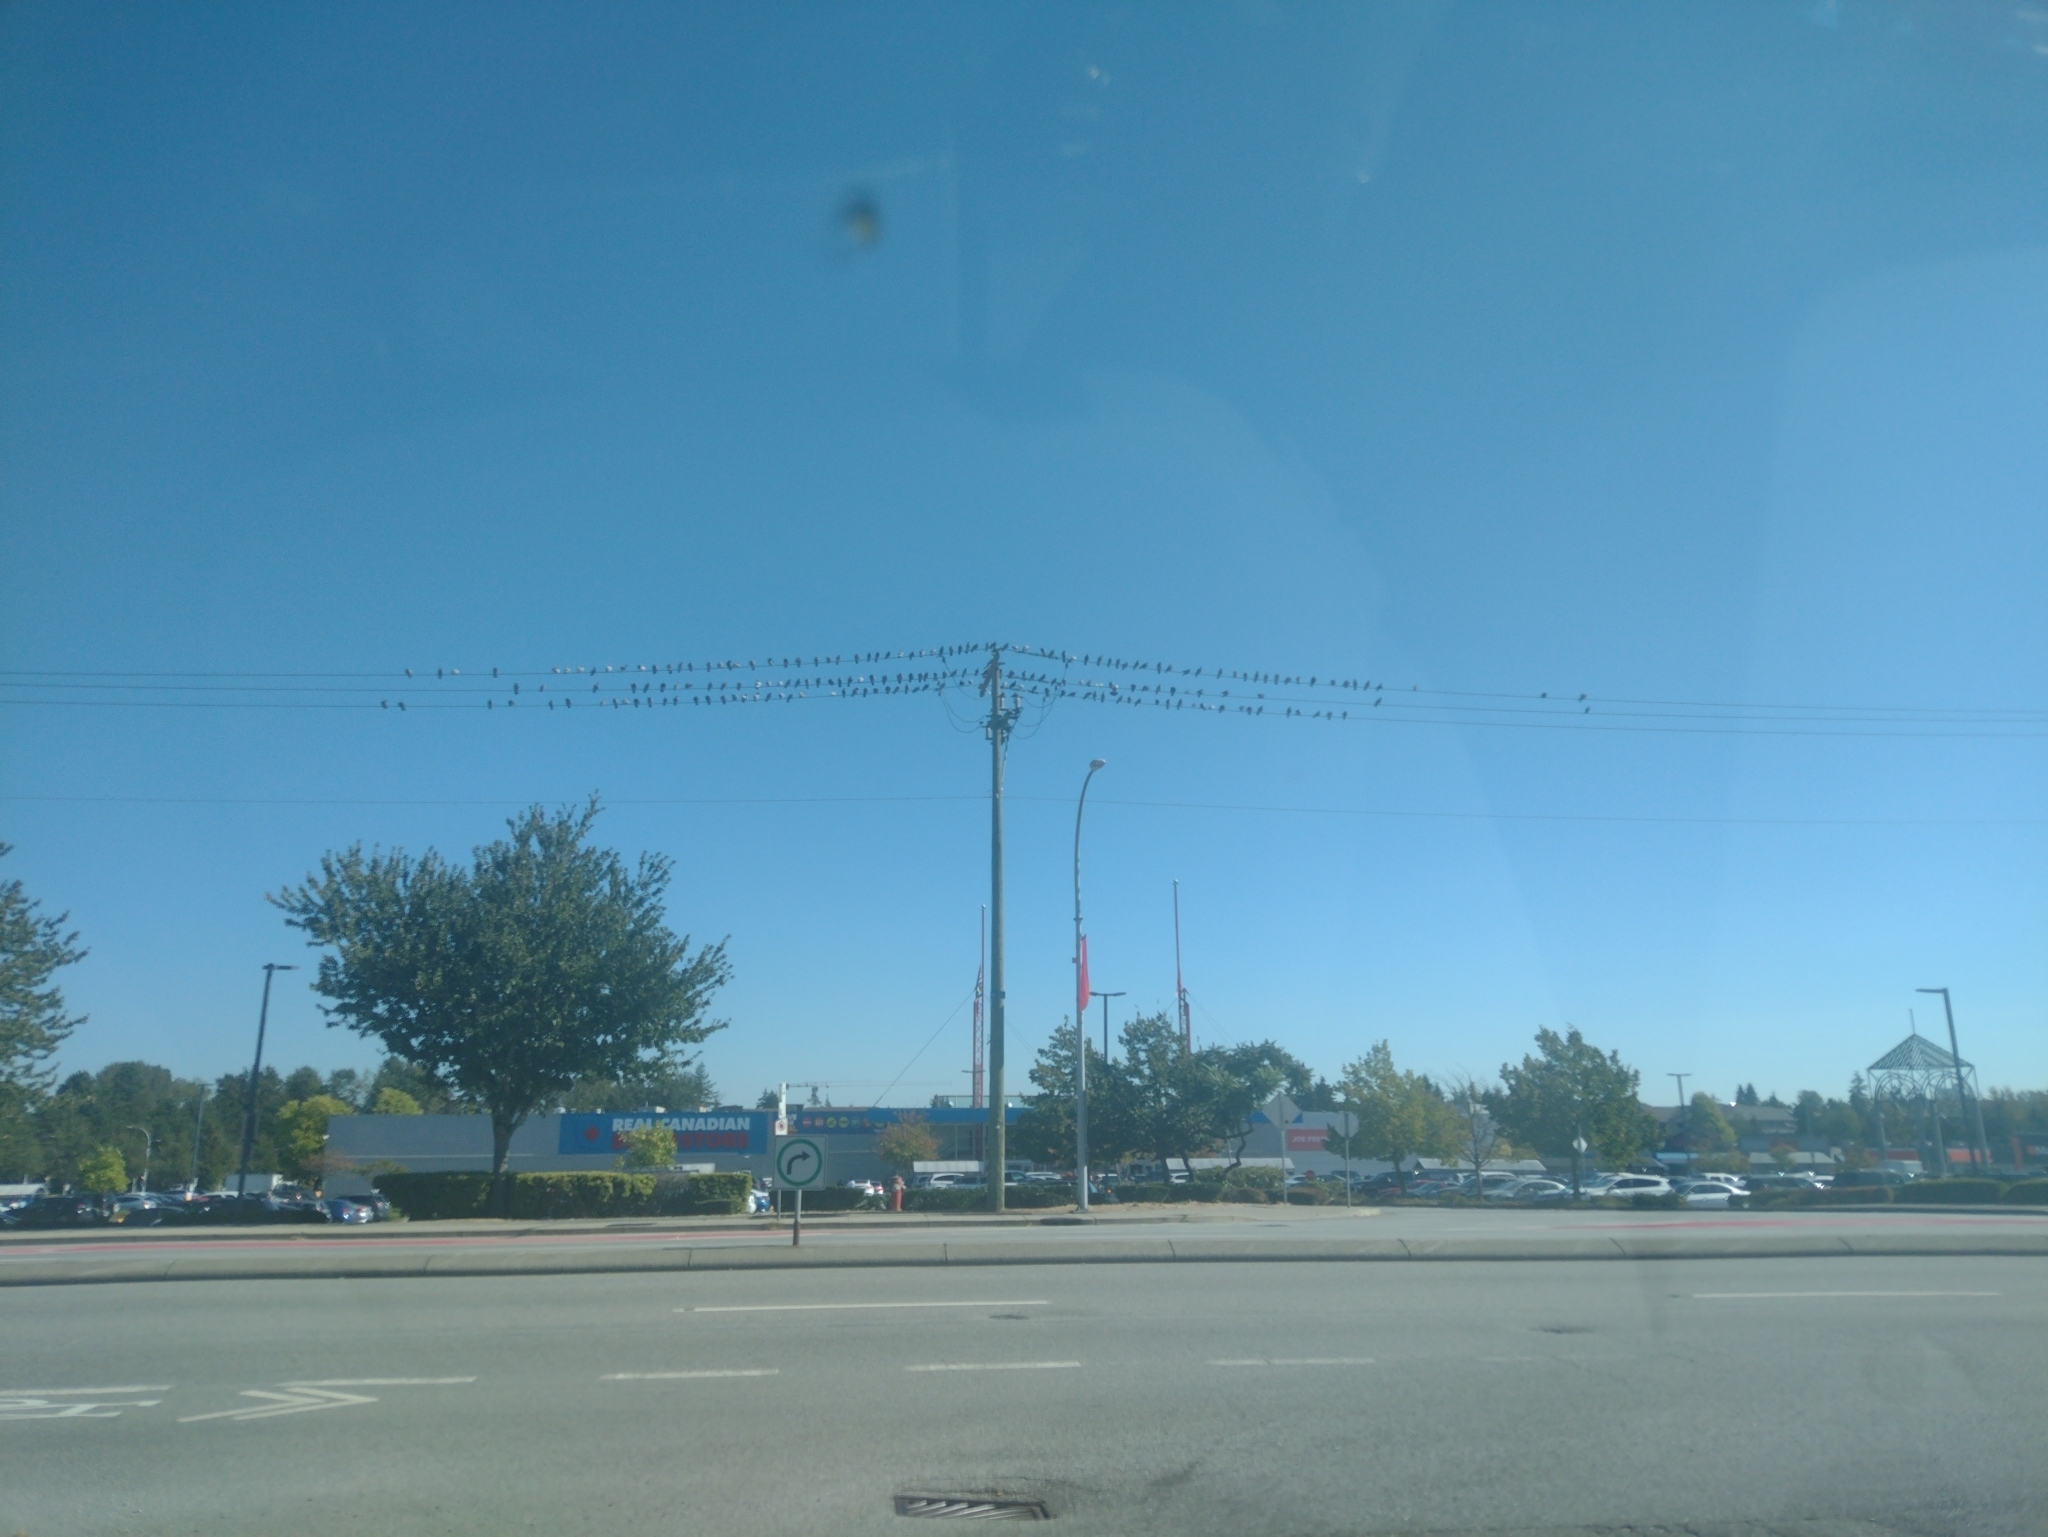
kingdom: Animalia
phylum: Chordata
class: Aves
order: Columbiformes
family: Columbidae
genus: Columba
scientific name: Columba livia
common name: Rock pigeon
